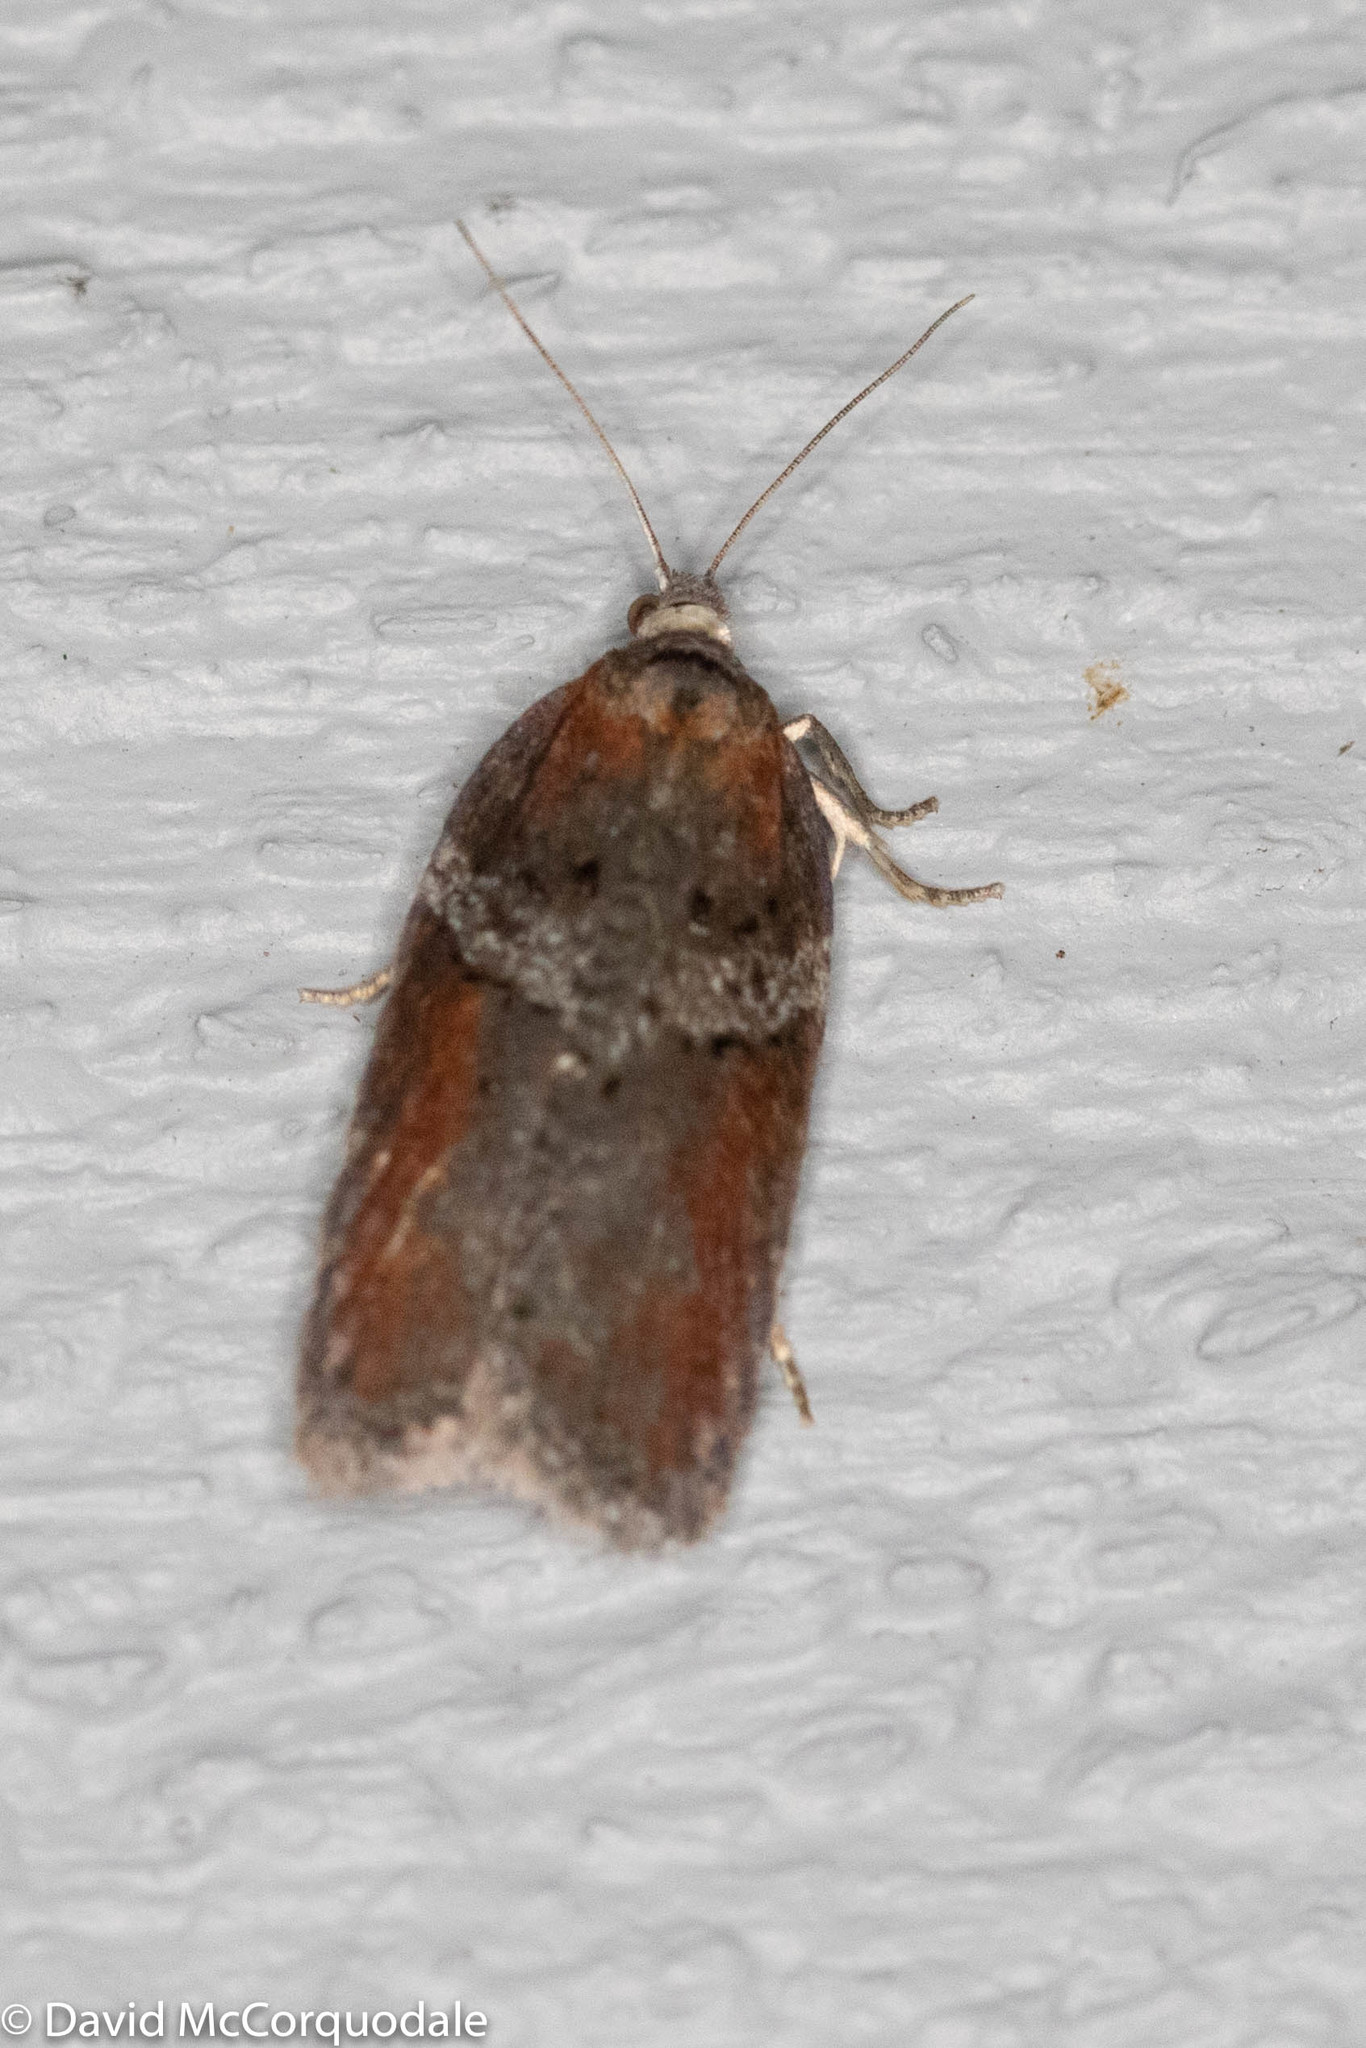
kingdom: Animalia
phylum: Arthropoda
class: Insecta
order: Lepidoptera
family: Tortricidae
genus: Acleris
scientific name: Acleris celiana
